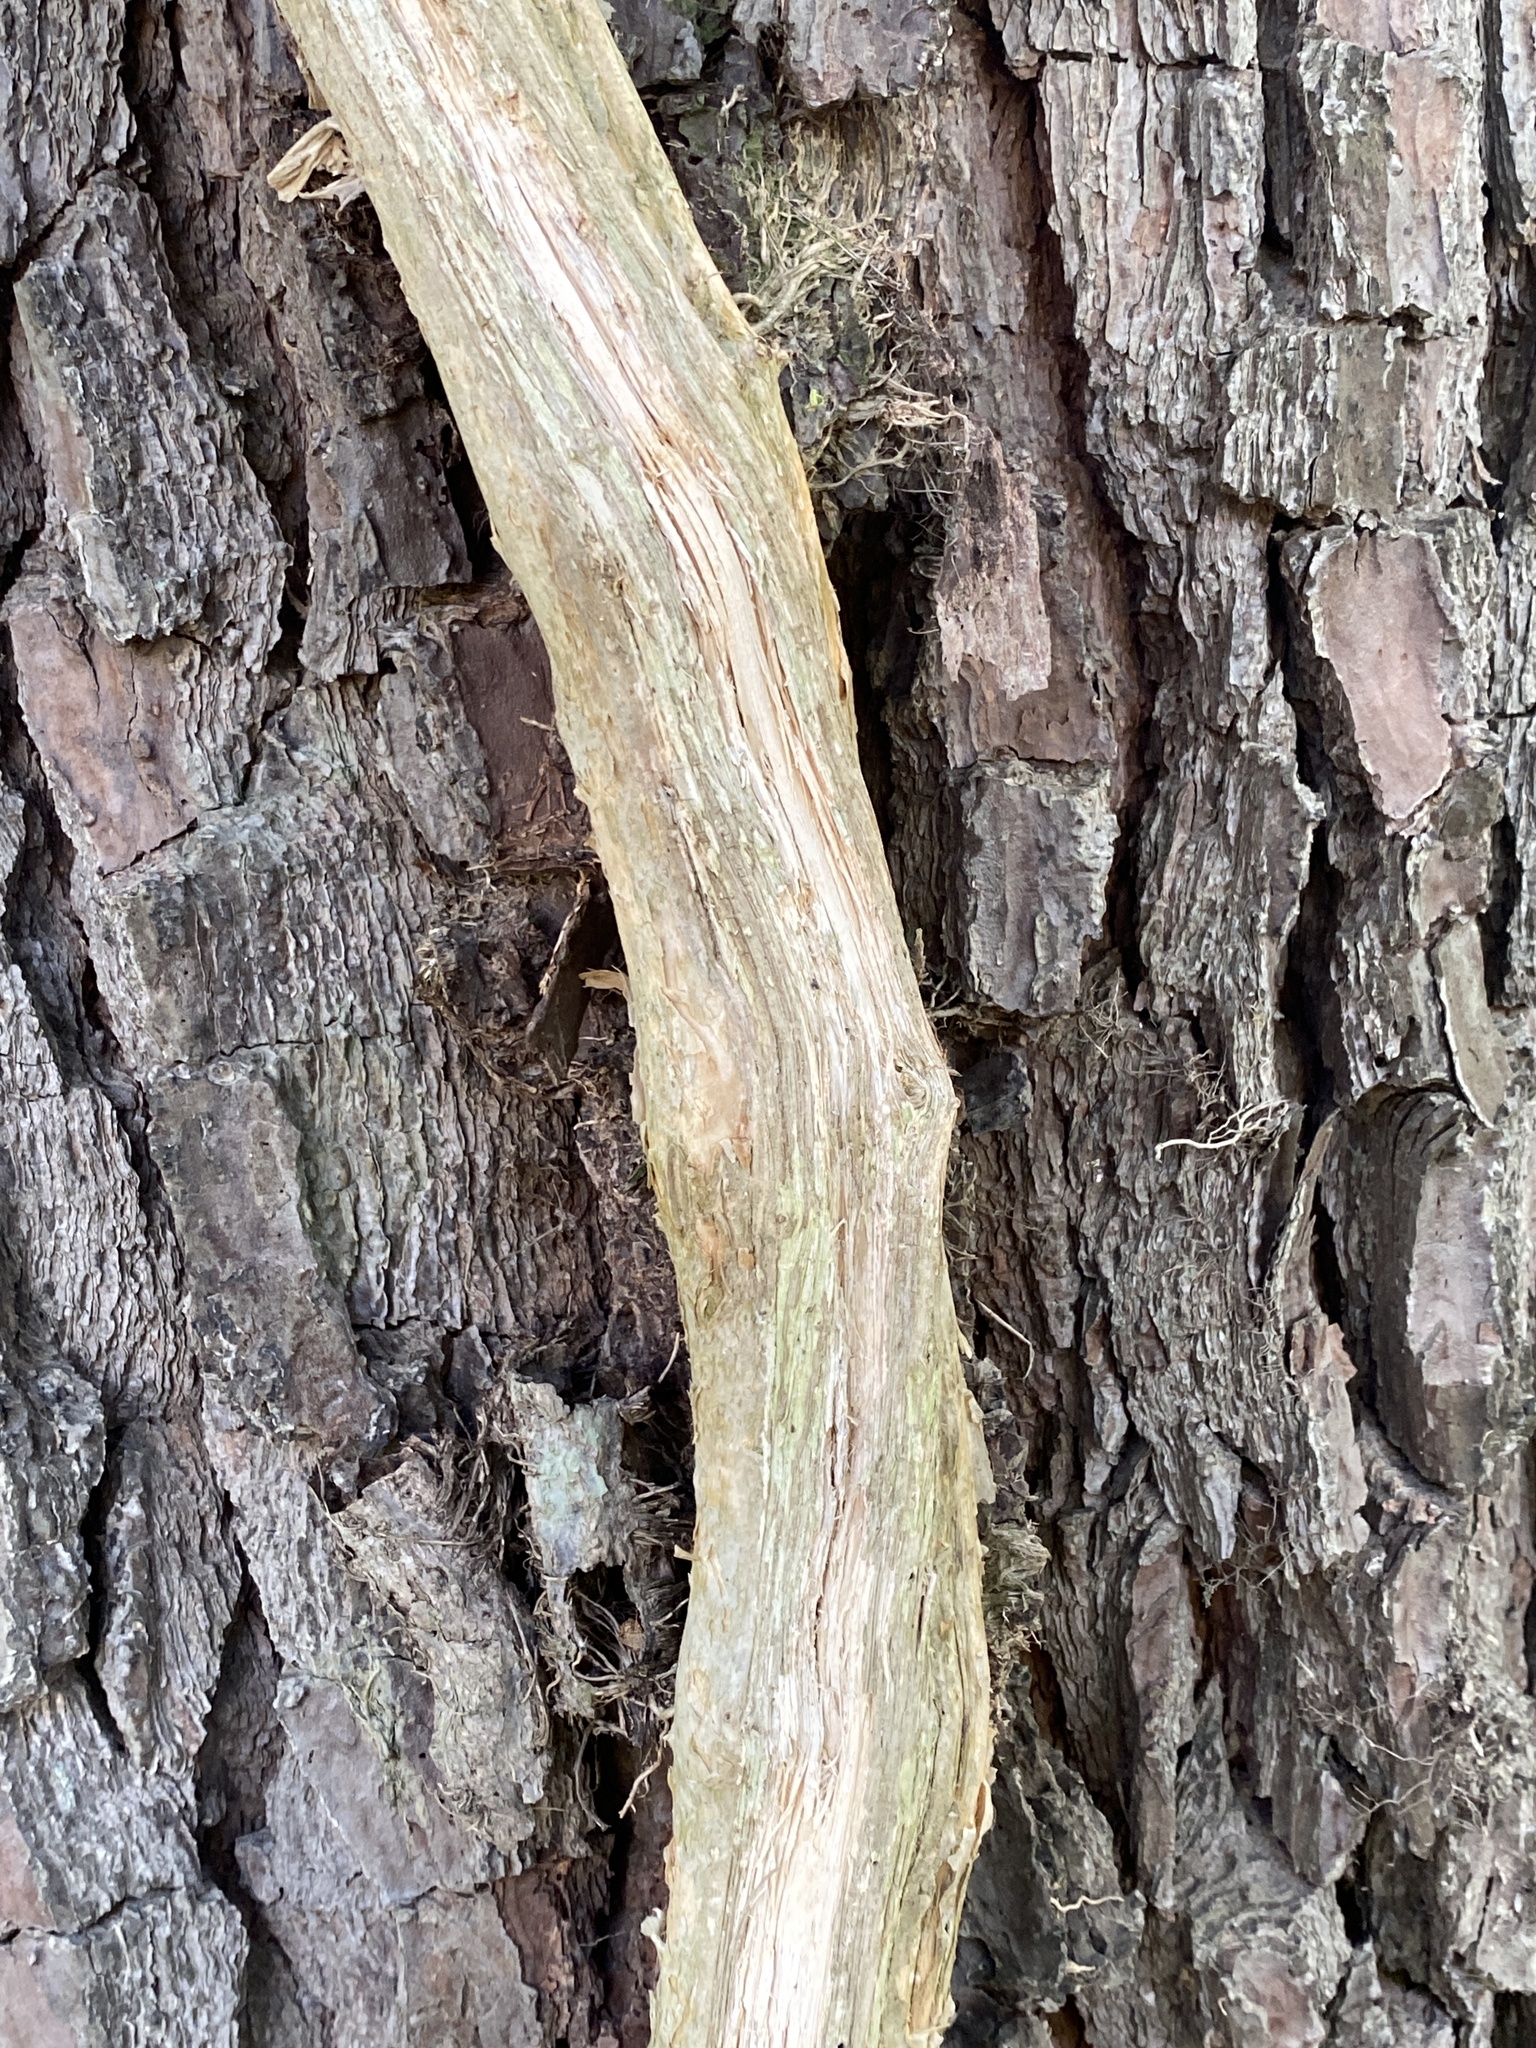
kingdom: Plantae
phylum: Tracheophyta
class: Magnoliopsida
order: Lamiales
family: Bignoniaceae
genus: Campsis
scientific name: Campsis radicans
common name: Trumpet-creeper
